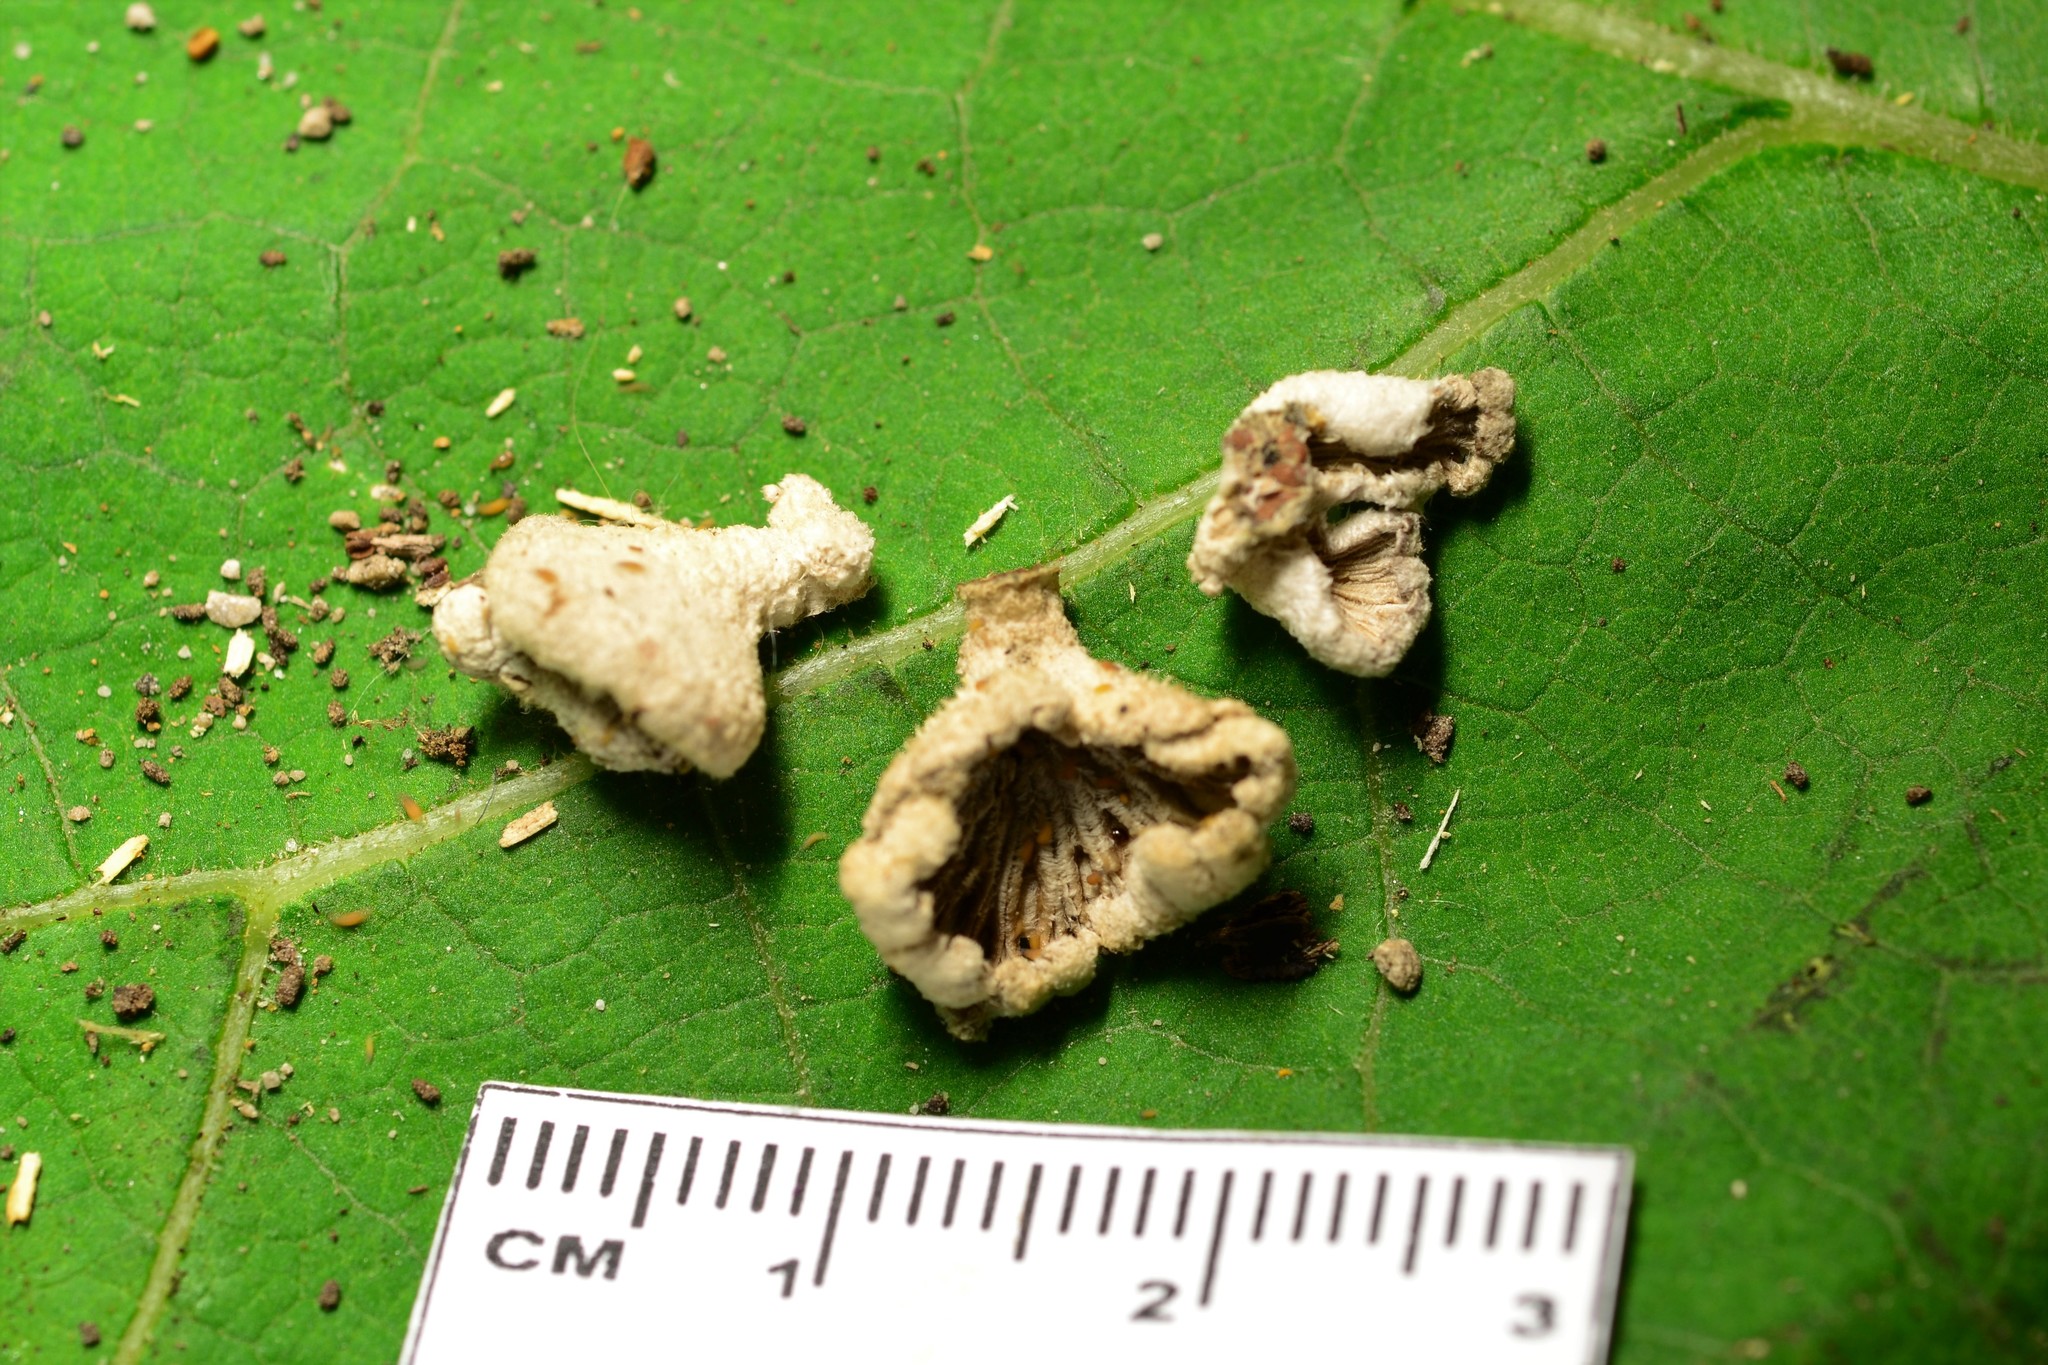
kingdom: Fungi
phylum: Basidiomycota
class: Agaricomycetes
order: Agaricales
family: Schizophyllaceae
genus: Schizophyllum
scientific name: Schizophyllum commune
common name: Common porecrust
